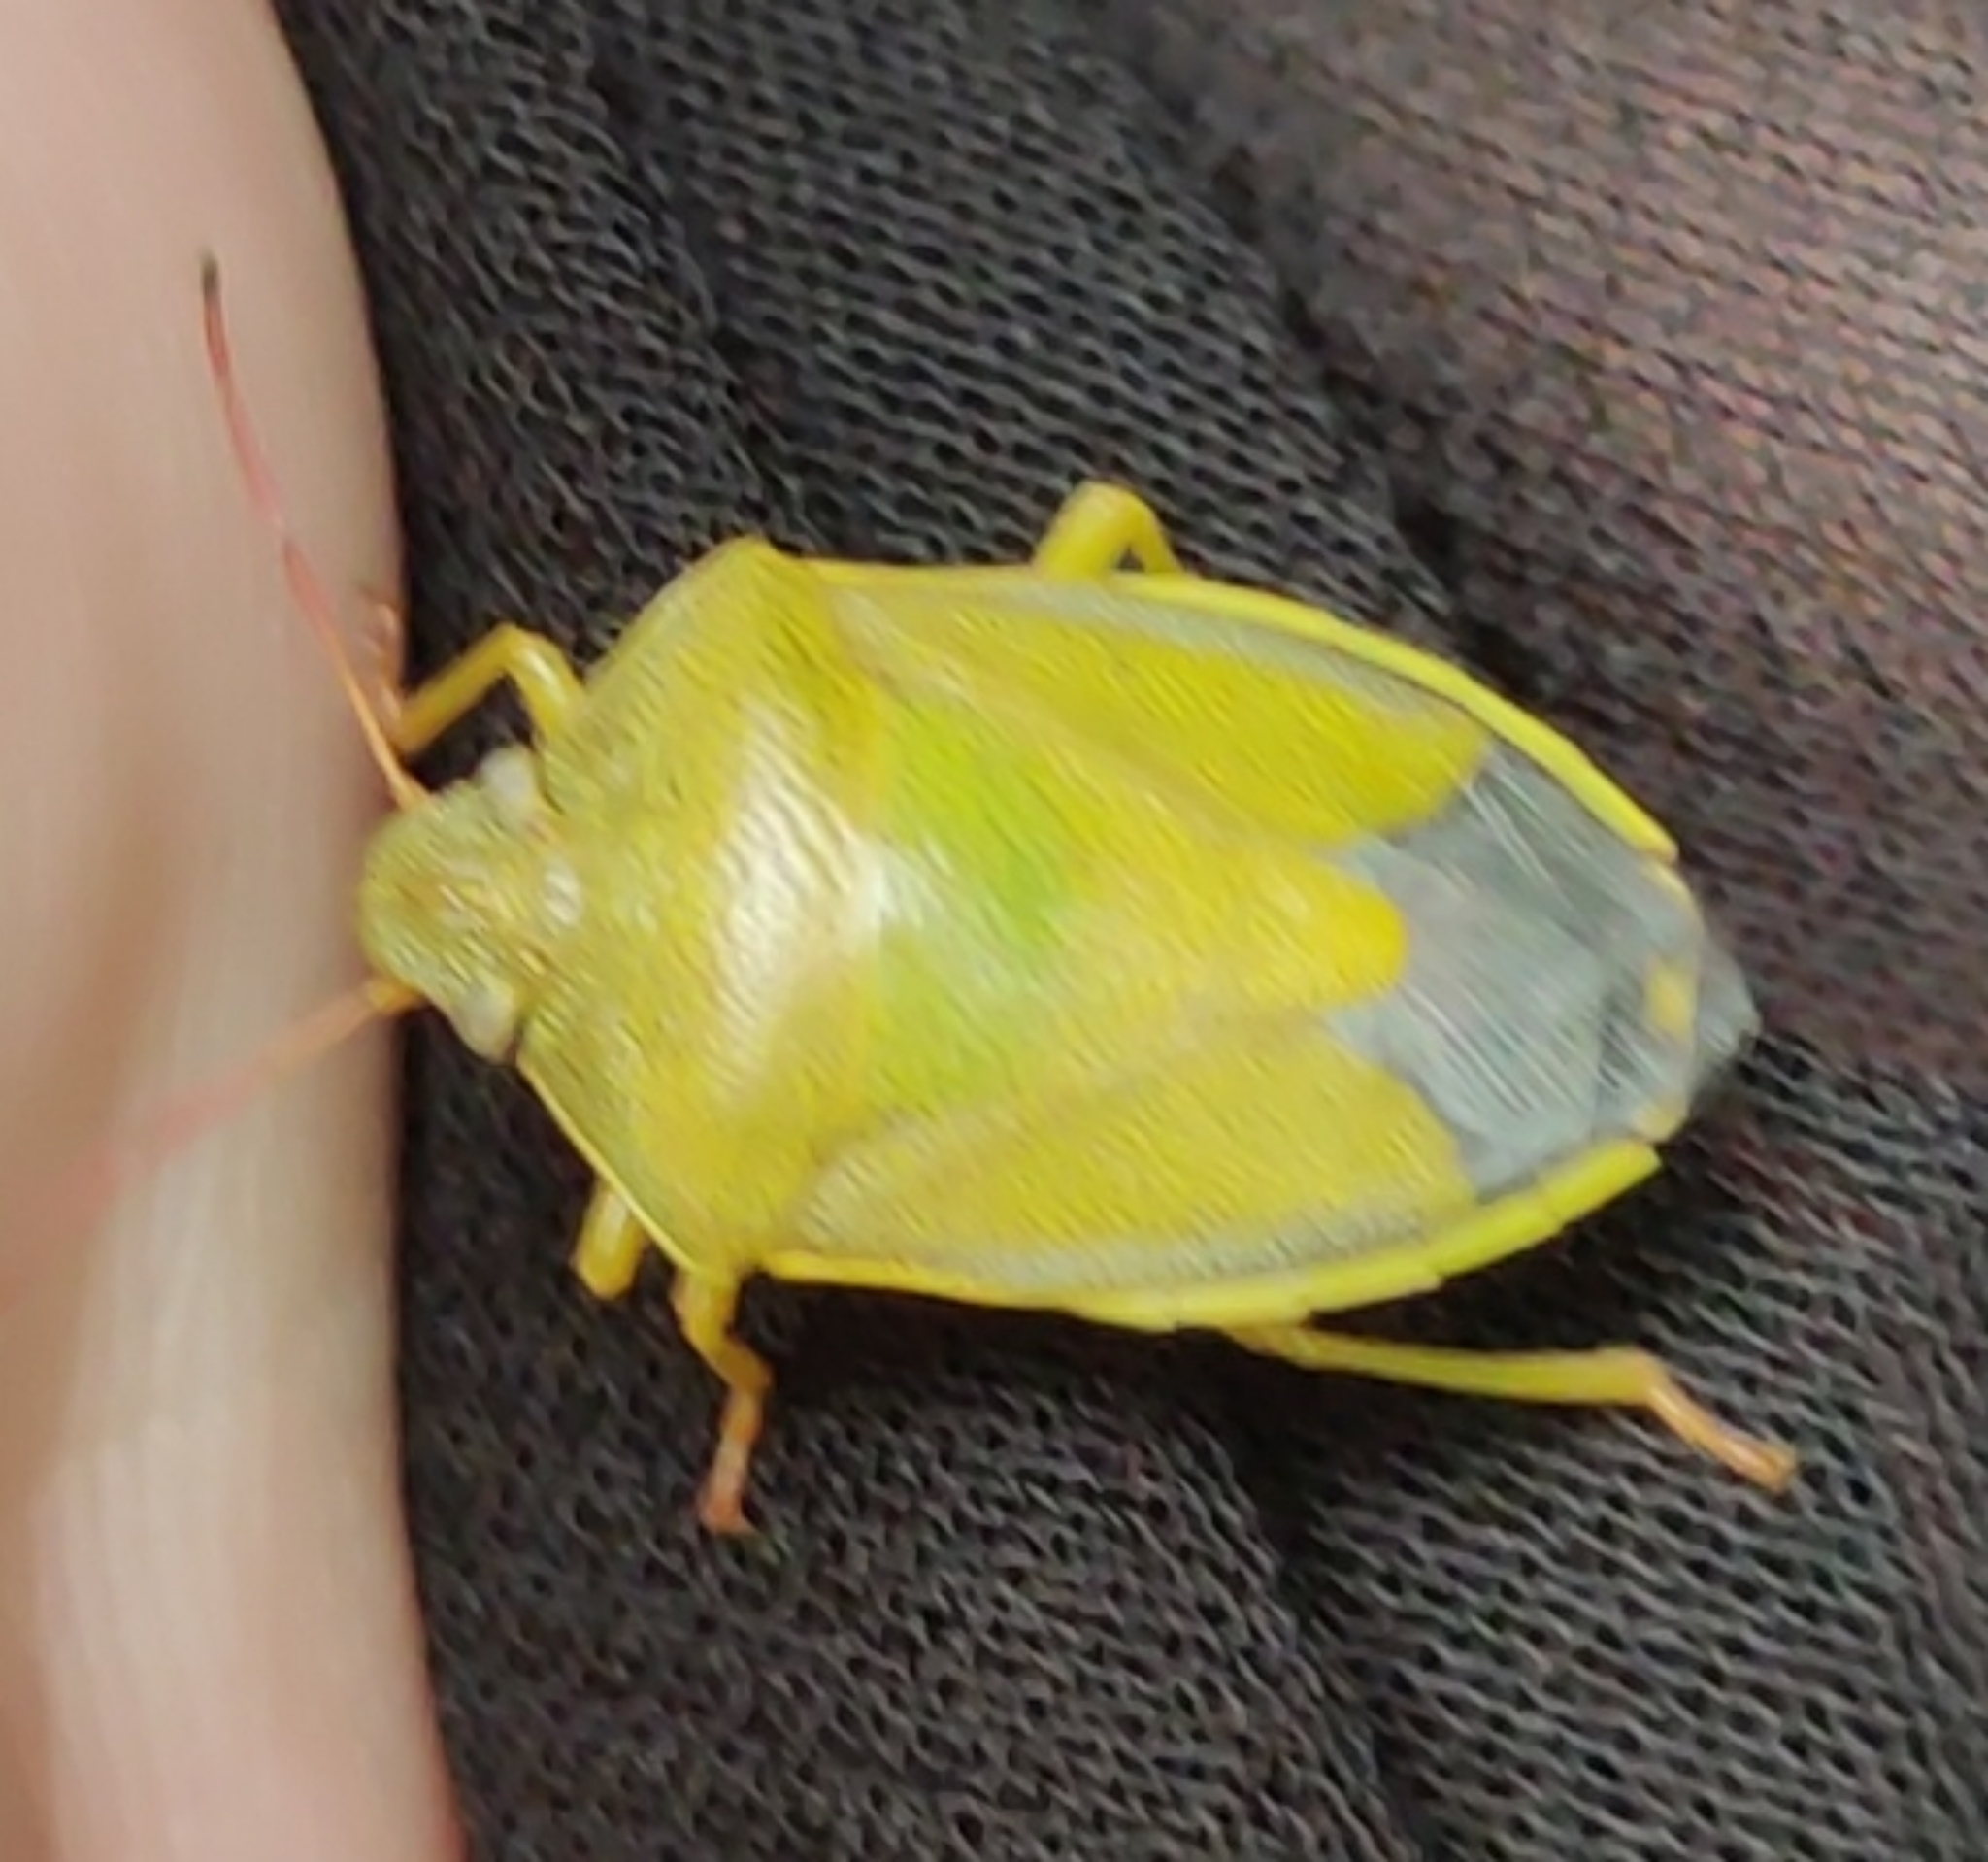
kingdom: Animalia
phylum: Arthropoda
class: Insecta
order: Hemiptera
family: Pentatomidae
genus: Piezodorus
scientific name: Piezodorus lituratus
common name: Stink bug
